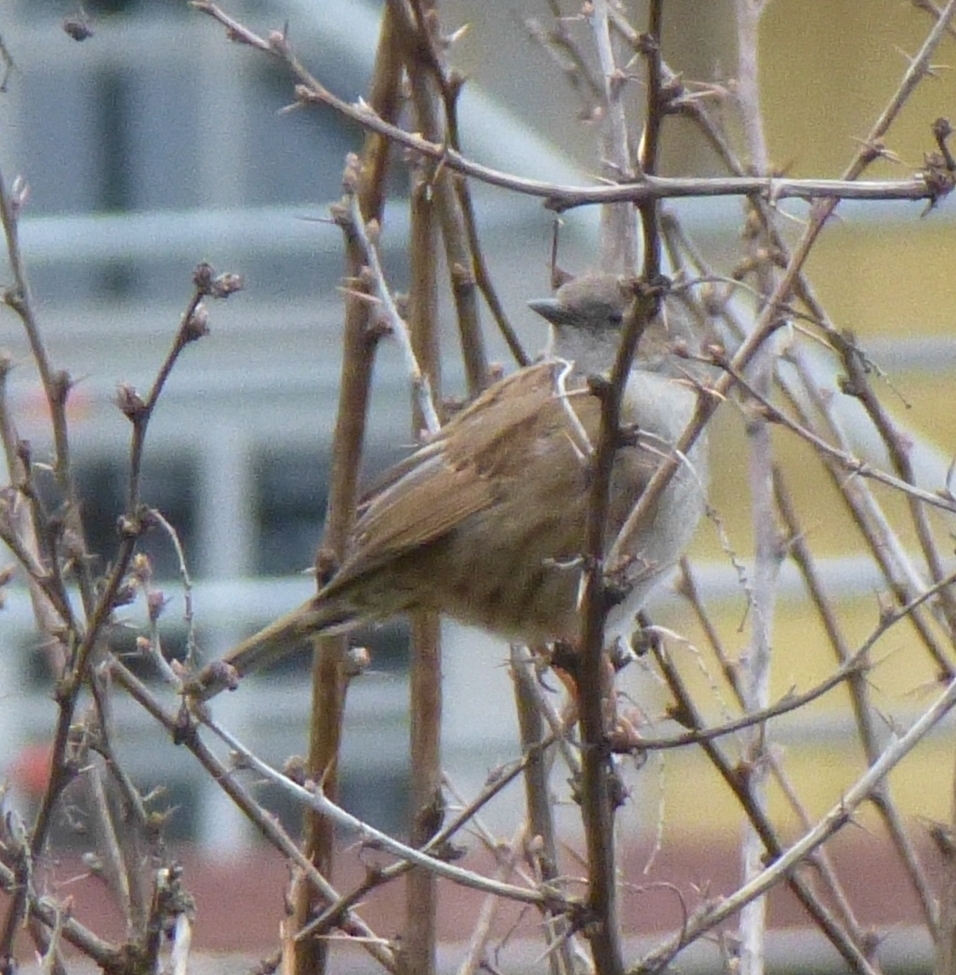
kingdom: Animalia
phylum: Chordata
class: Aves
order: Passeriformes
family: Prunellidae
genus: Prunella
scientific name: Prunella modularis
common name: Dunnock
